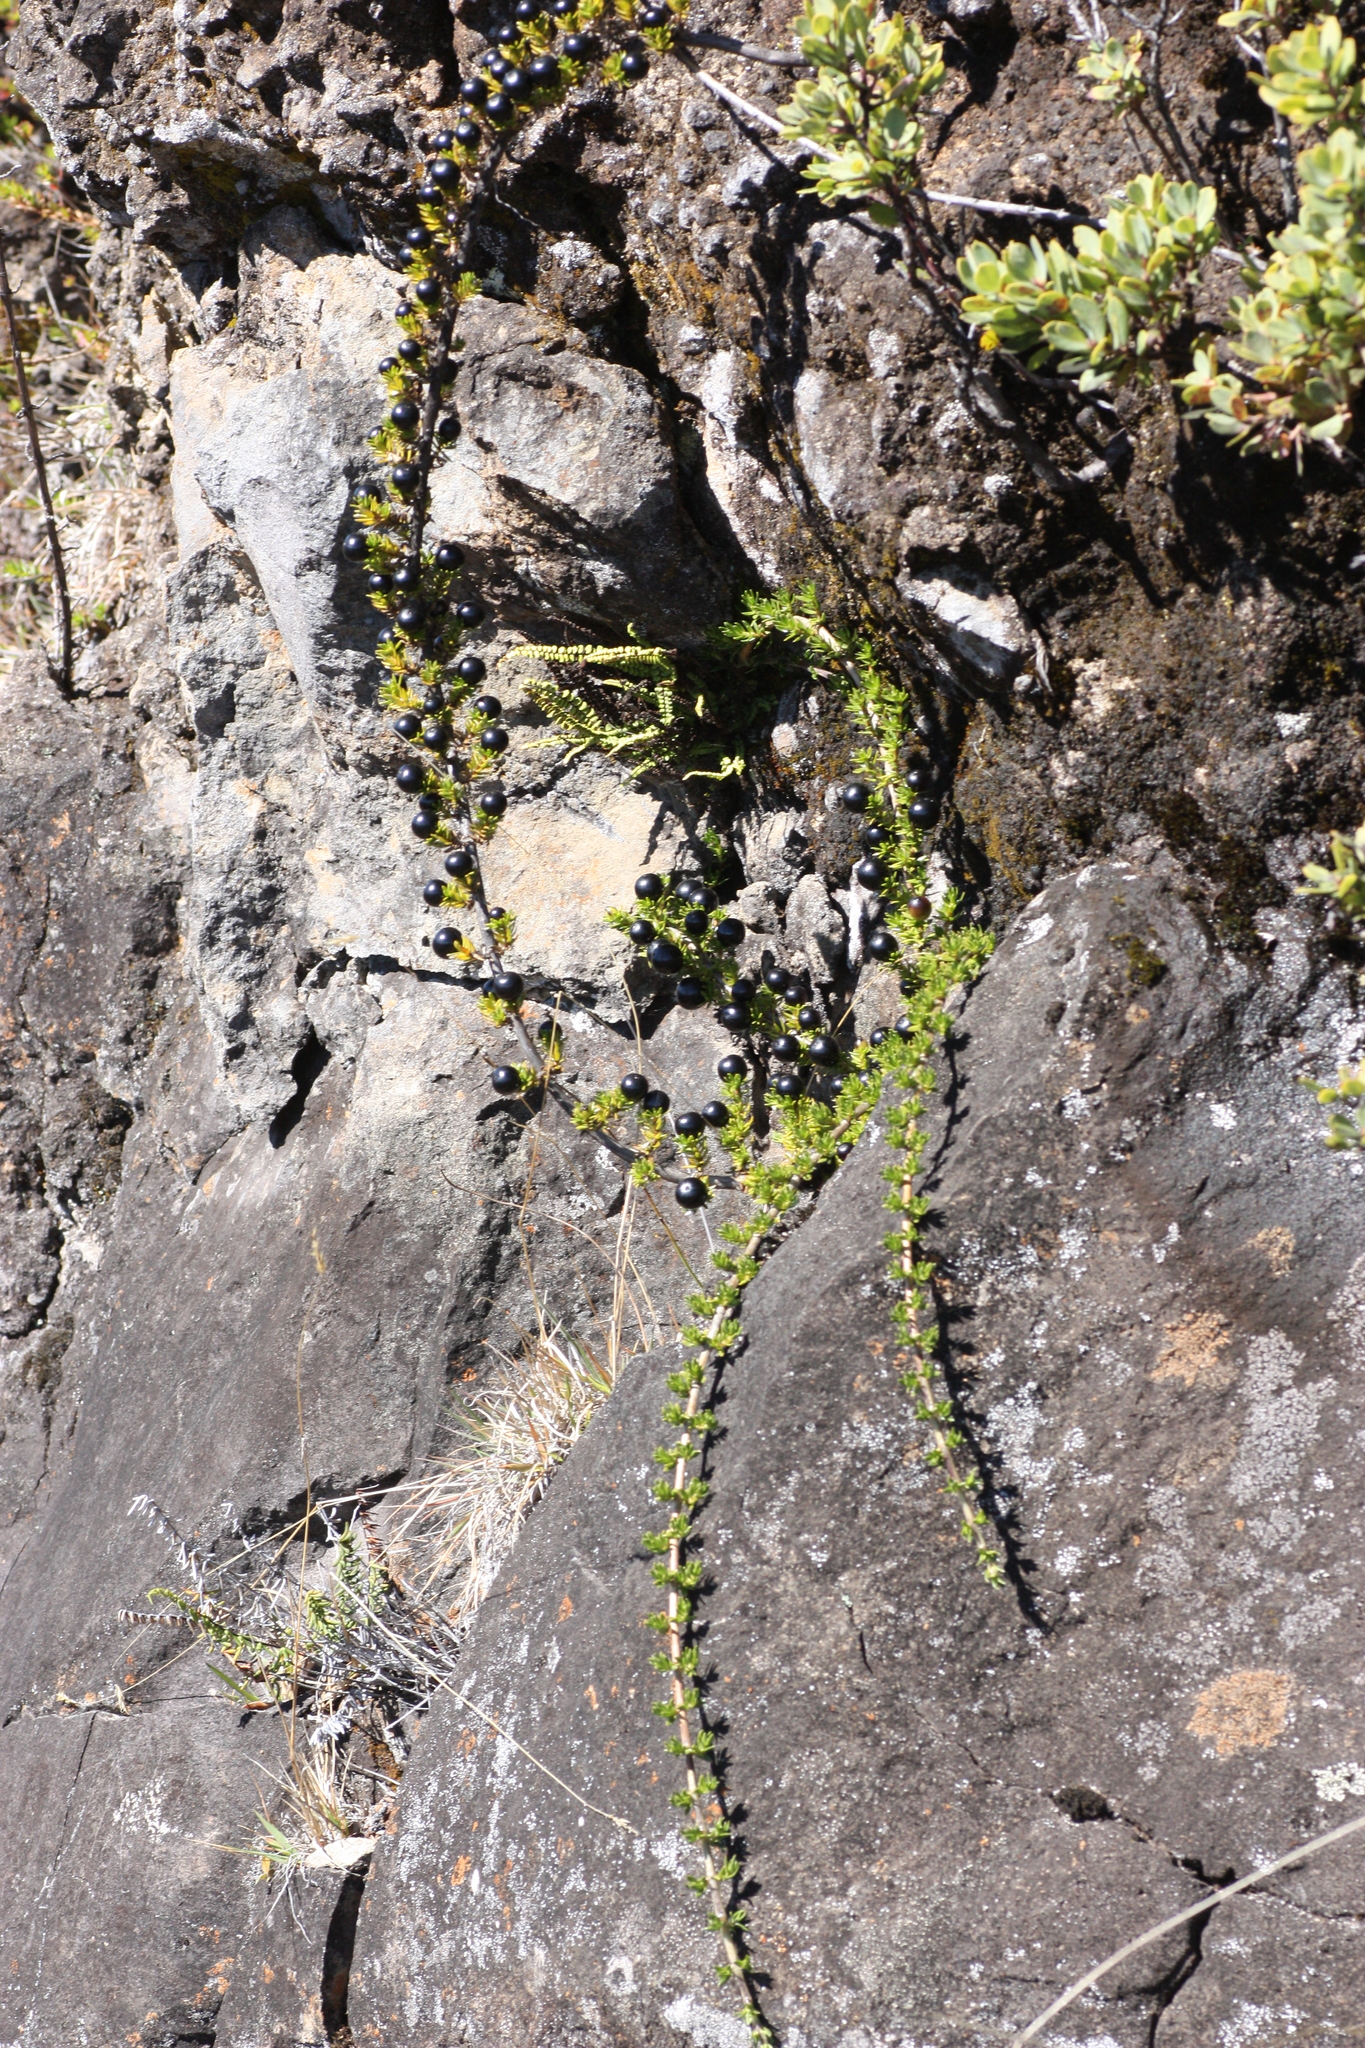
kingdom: Plantae
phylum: Tracheophyta
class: Magnoliopsida
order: Gentianales
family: Rubiaceae
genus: Coprosma
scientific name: Coprosma ernodeoides
